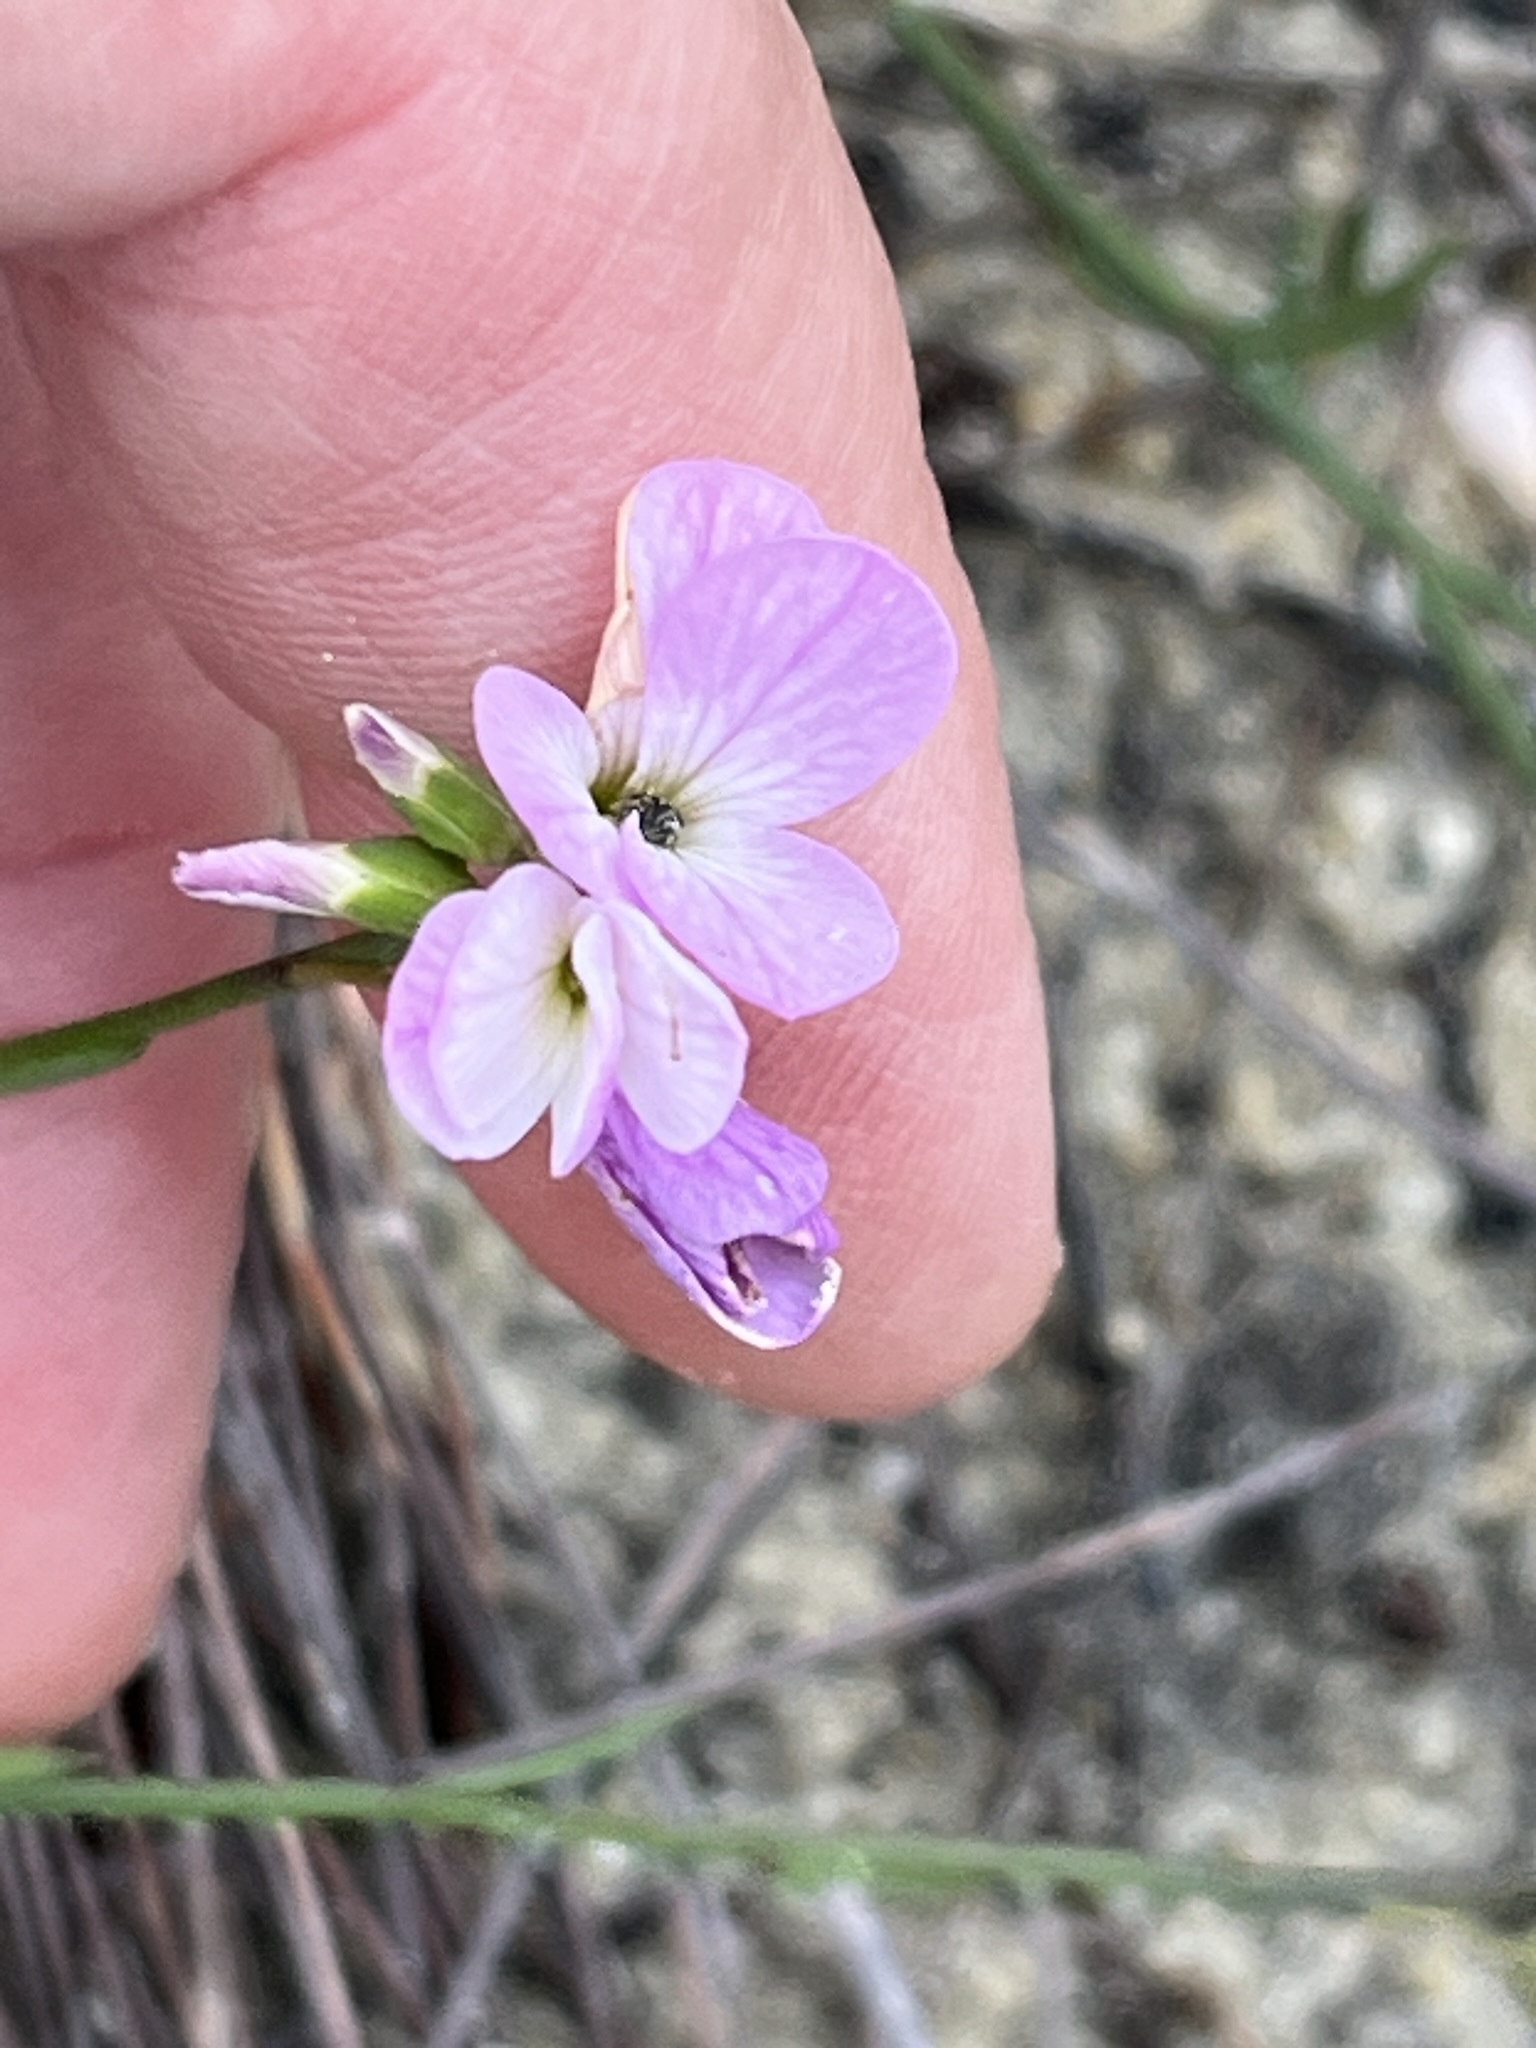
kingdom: Plantae
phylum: Tracheophyta
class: Magnoliopsida
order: Brassicales
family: Brassicaceae
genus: Heliophila
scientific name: Heliophila juncea
